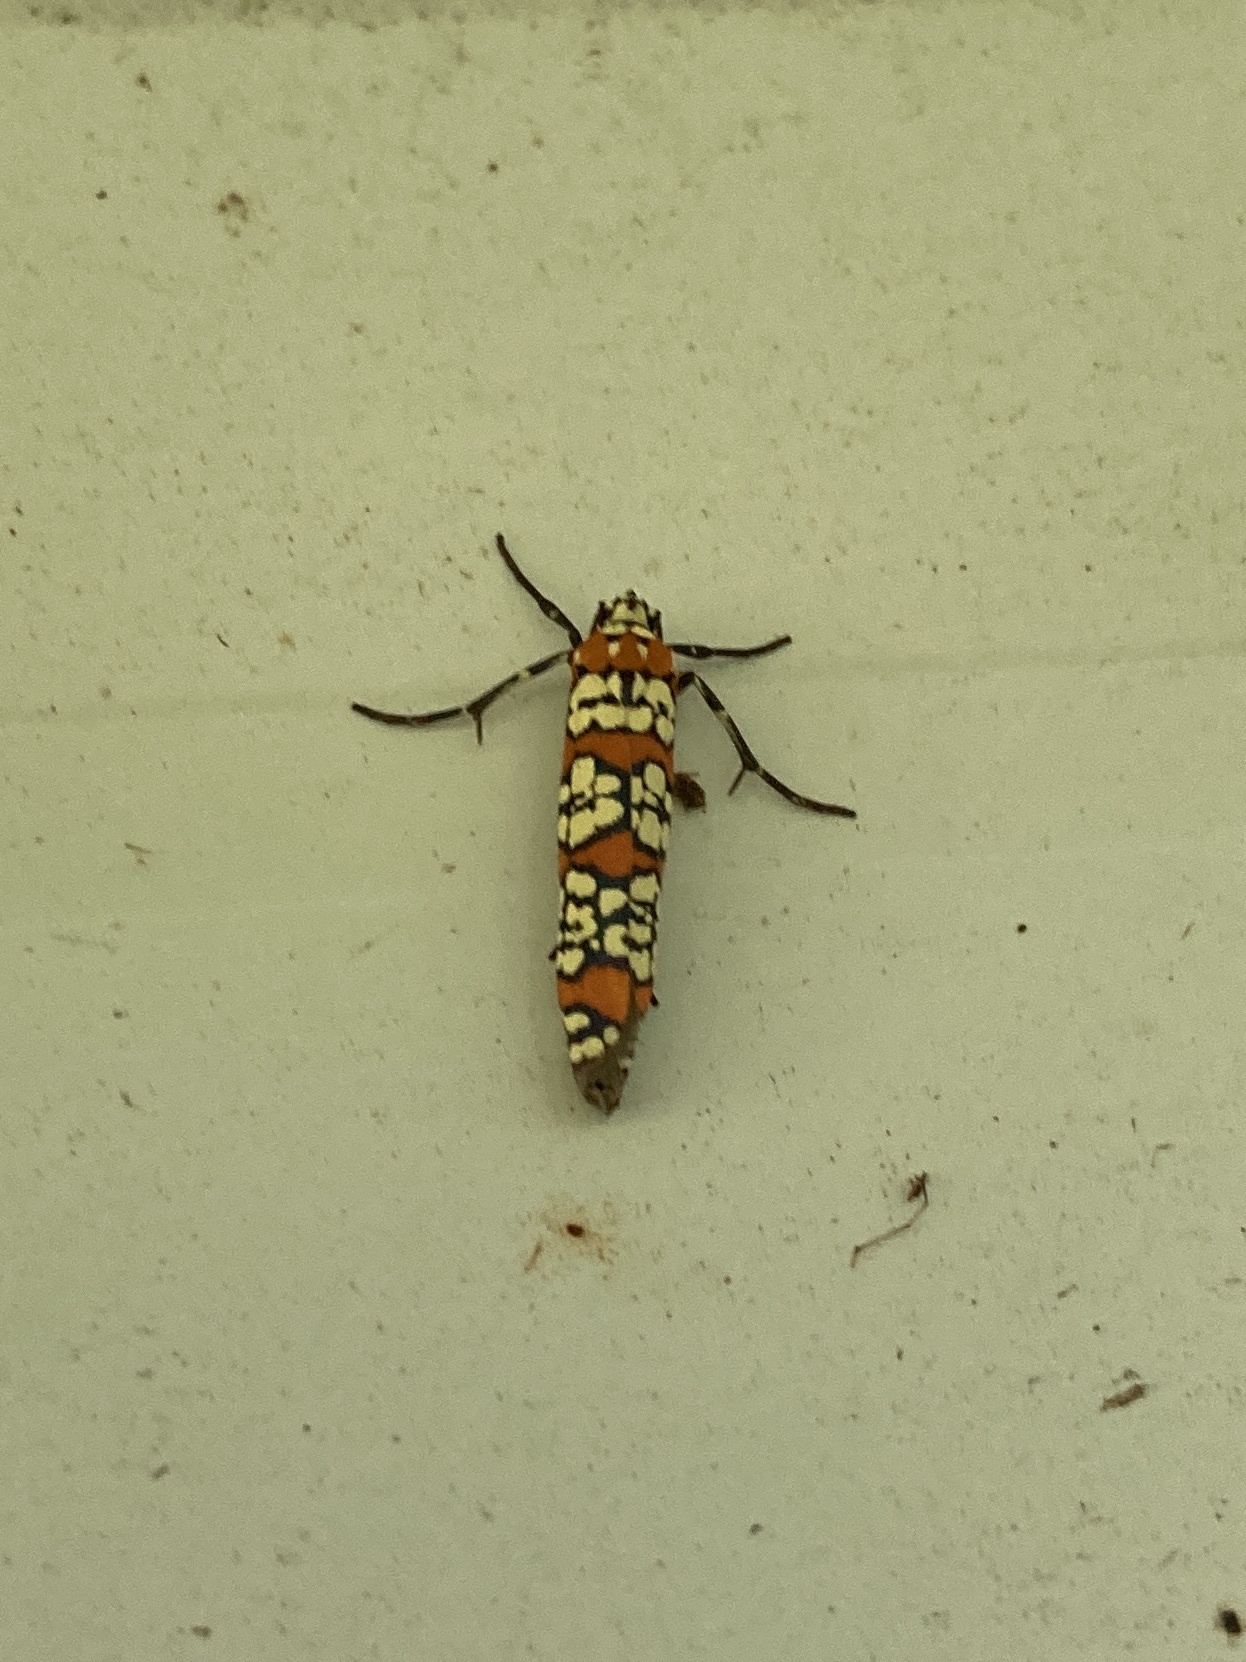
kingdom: Animalia
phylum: Arthropoda
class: Insecta
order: Lepidoptera
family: Attevidae
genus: Atteva
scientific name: Atteva punctella
